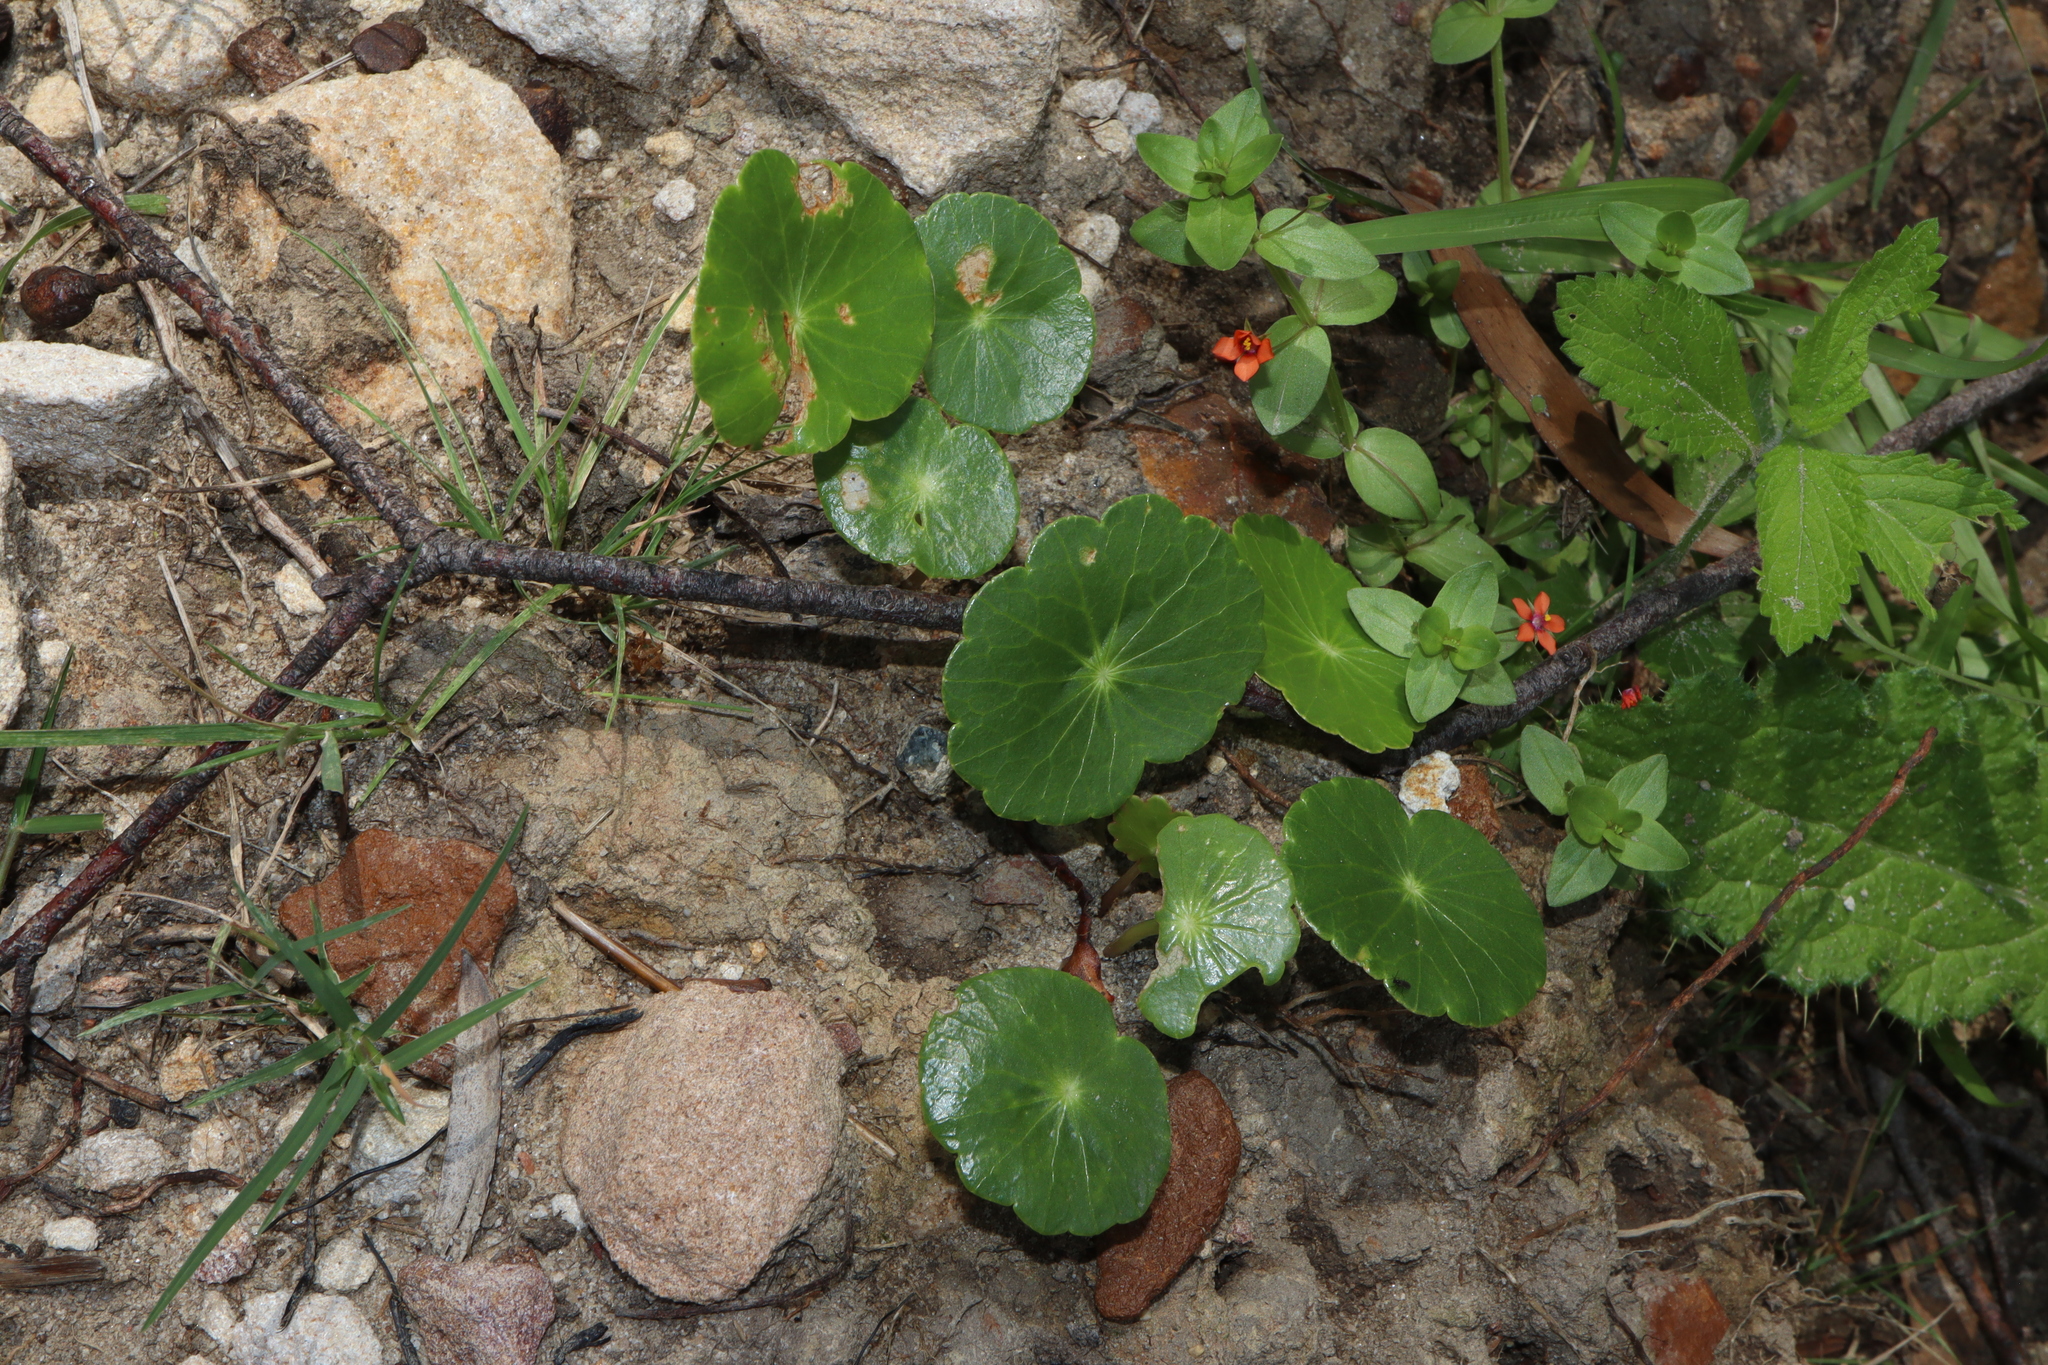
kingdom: Plantae
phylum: Tracheophyta
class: Magnoliopsida
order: Apiales
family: Araliaceae
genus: Hydrocotyle
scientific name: Hydrocotyle bonariensis
